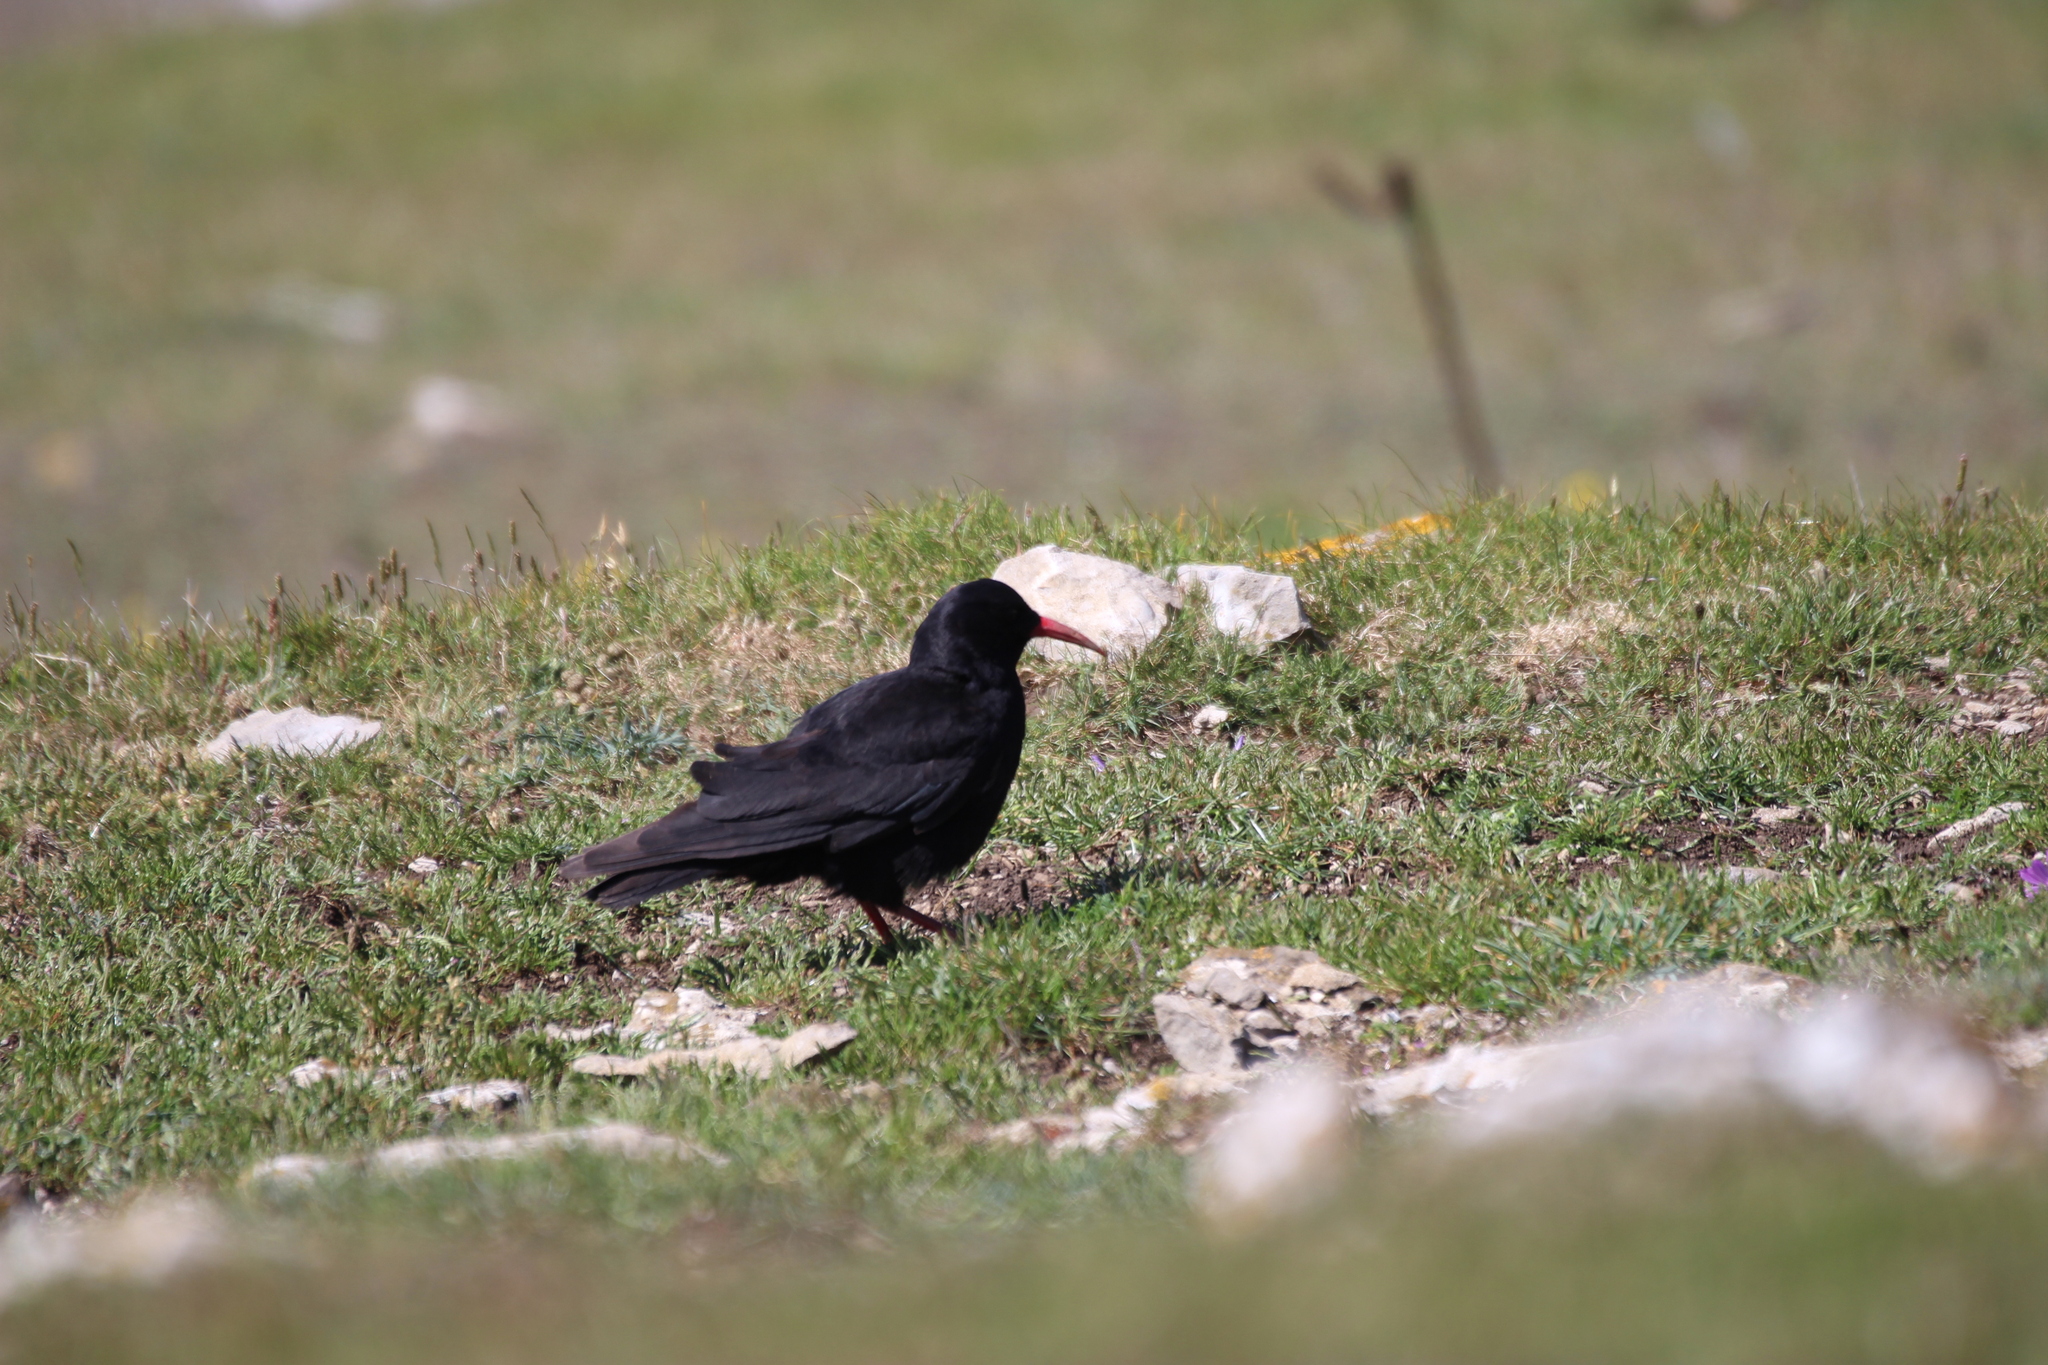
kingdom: Animalia
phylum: Chordata
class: Aves
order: Passeriformes
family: Corvidae
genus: Pyrrhocorax
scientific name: Pyrrhocorax pyrrhocorax
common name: Red-billed chough
